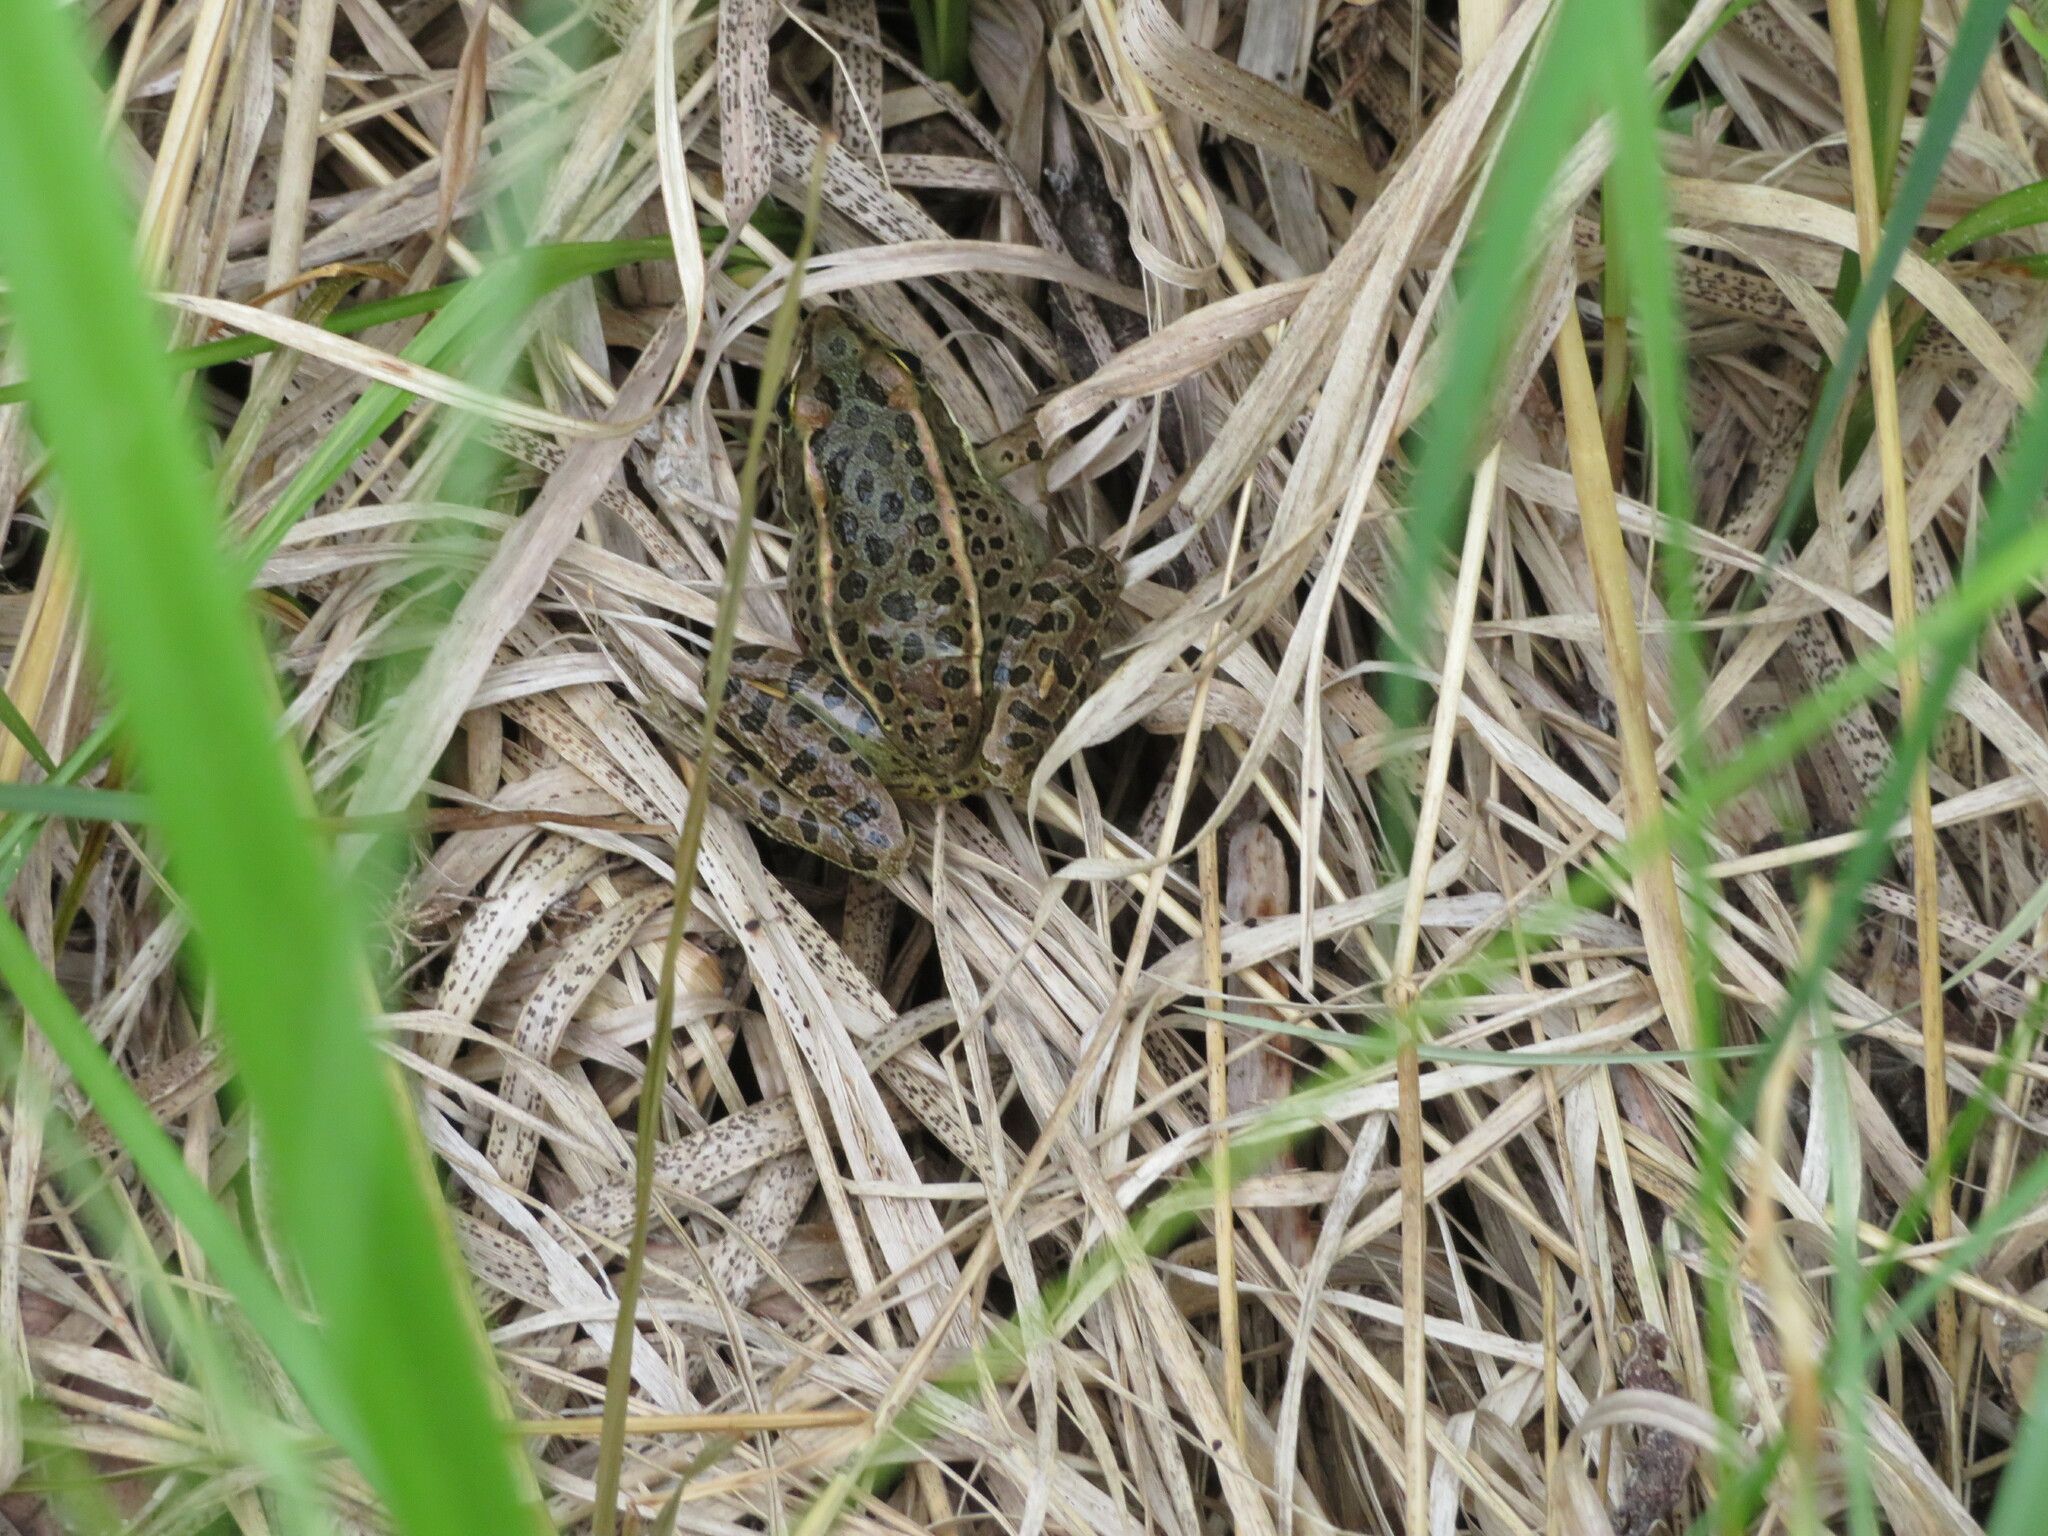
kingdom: Animalia
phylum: Chordata
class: Amphibia
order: Anura
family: Ranidae
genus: Lithobates
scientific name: Lithobates pipiens
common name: Northern leopard frog
